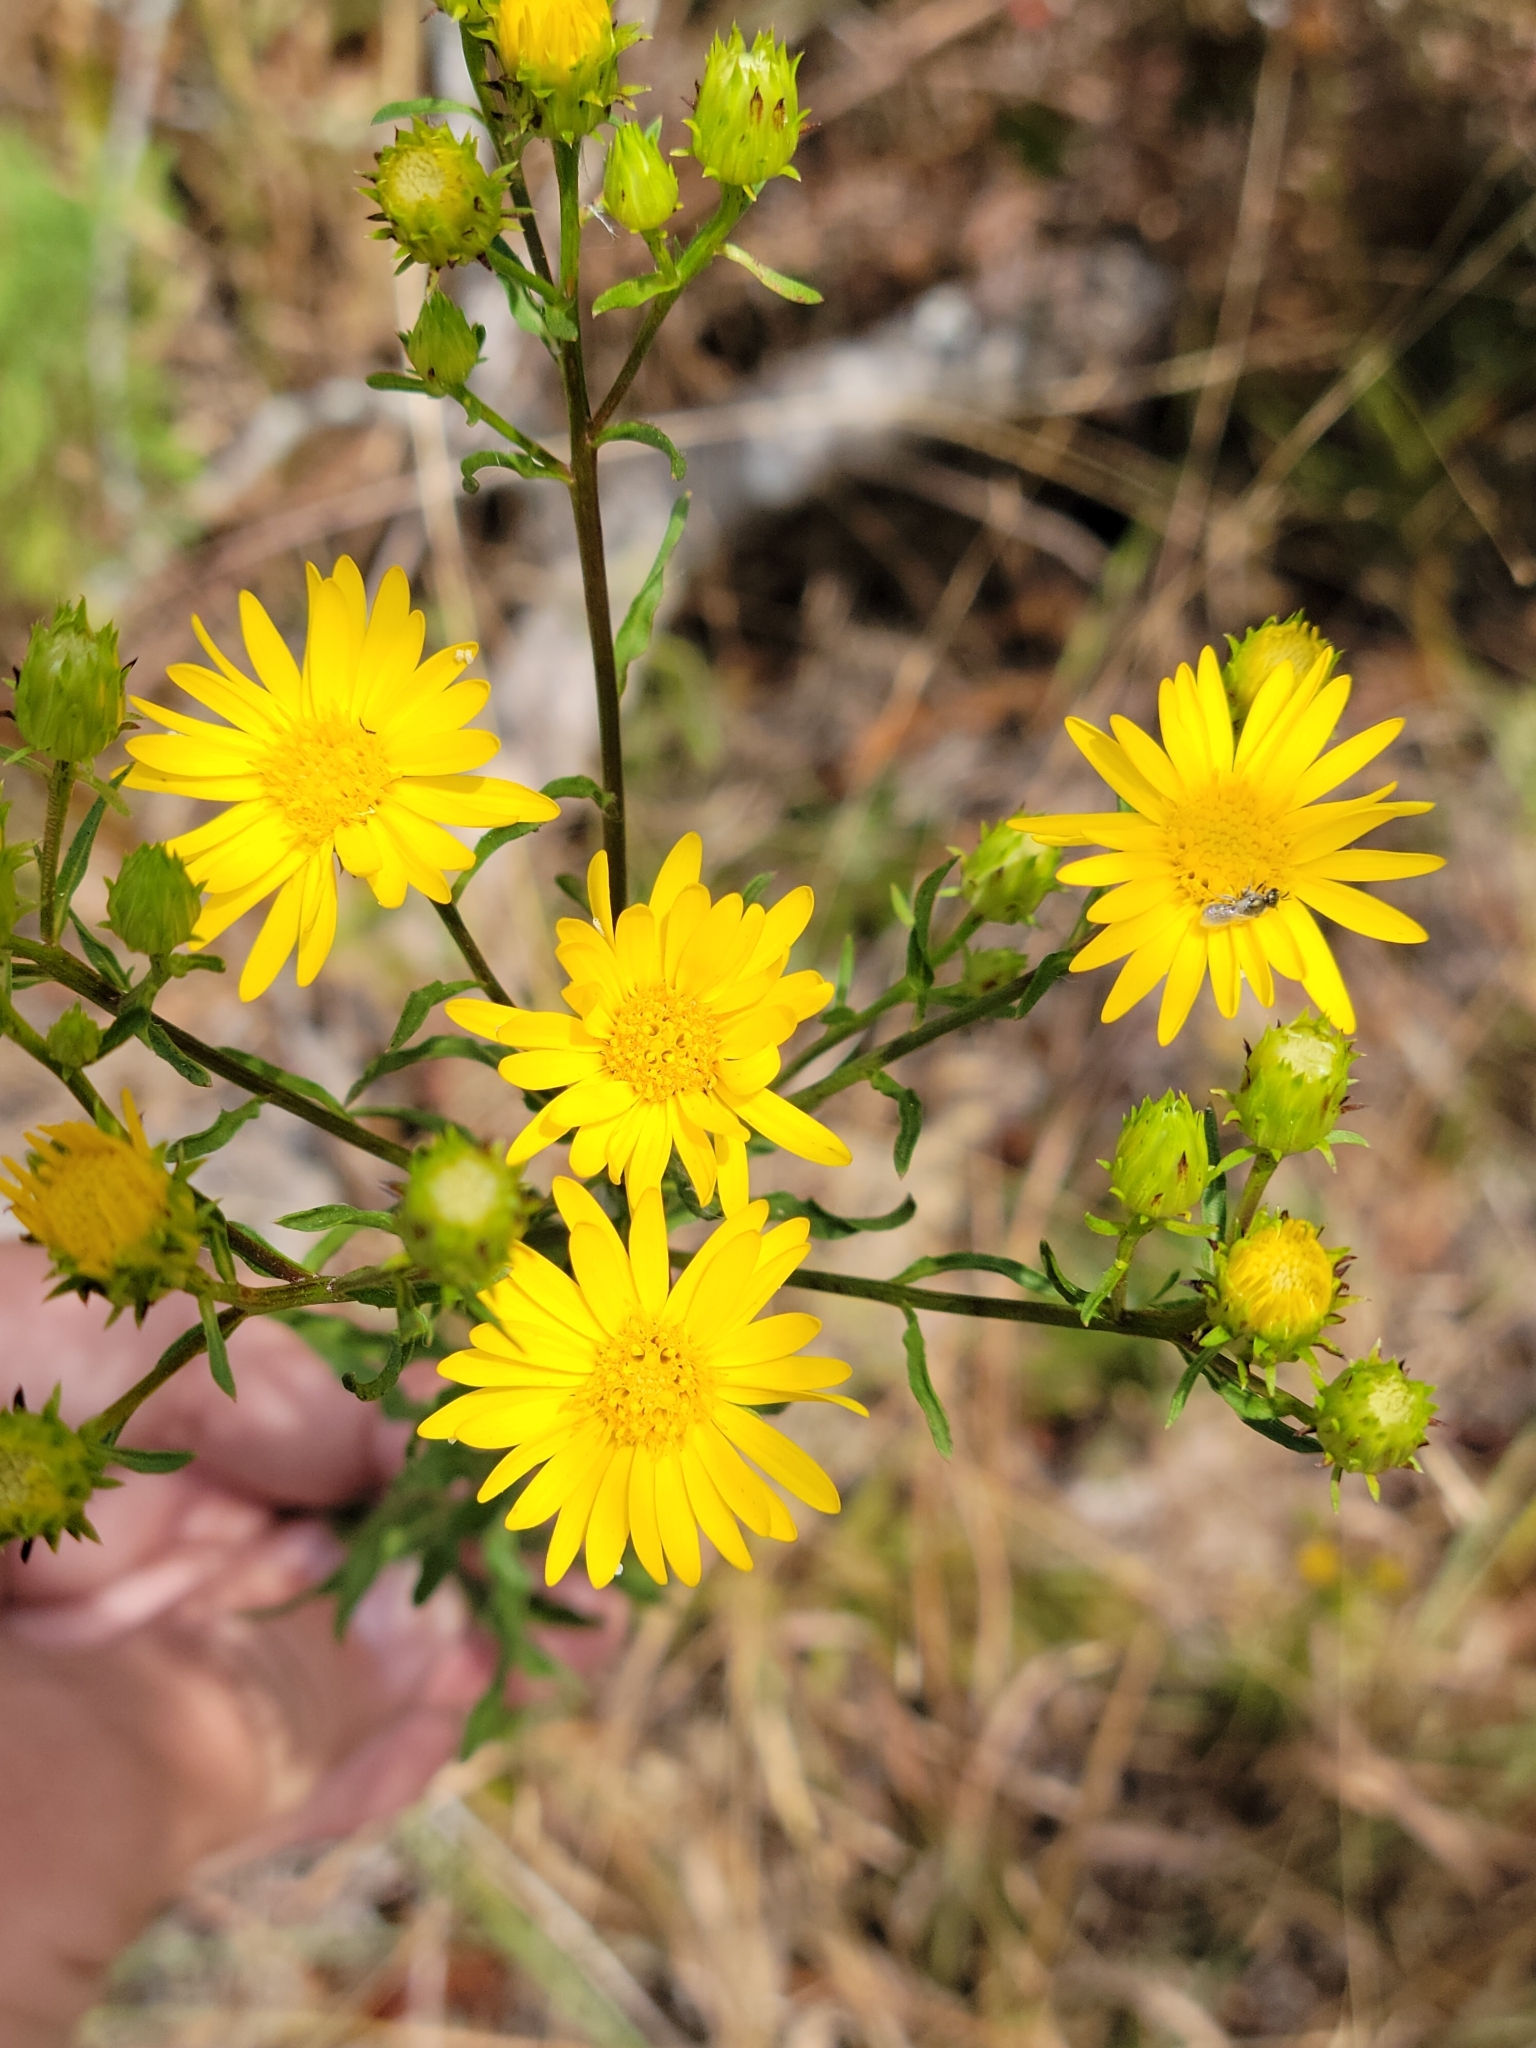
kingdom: Plantae
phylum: Tracheophyta
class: Magnoliopsida
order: Asterales
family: Asteraceae
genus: Chrysopsis
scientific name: Chrysopsis gossypina
